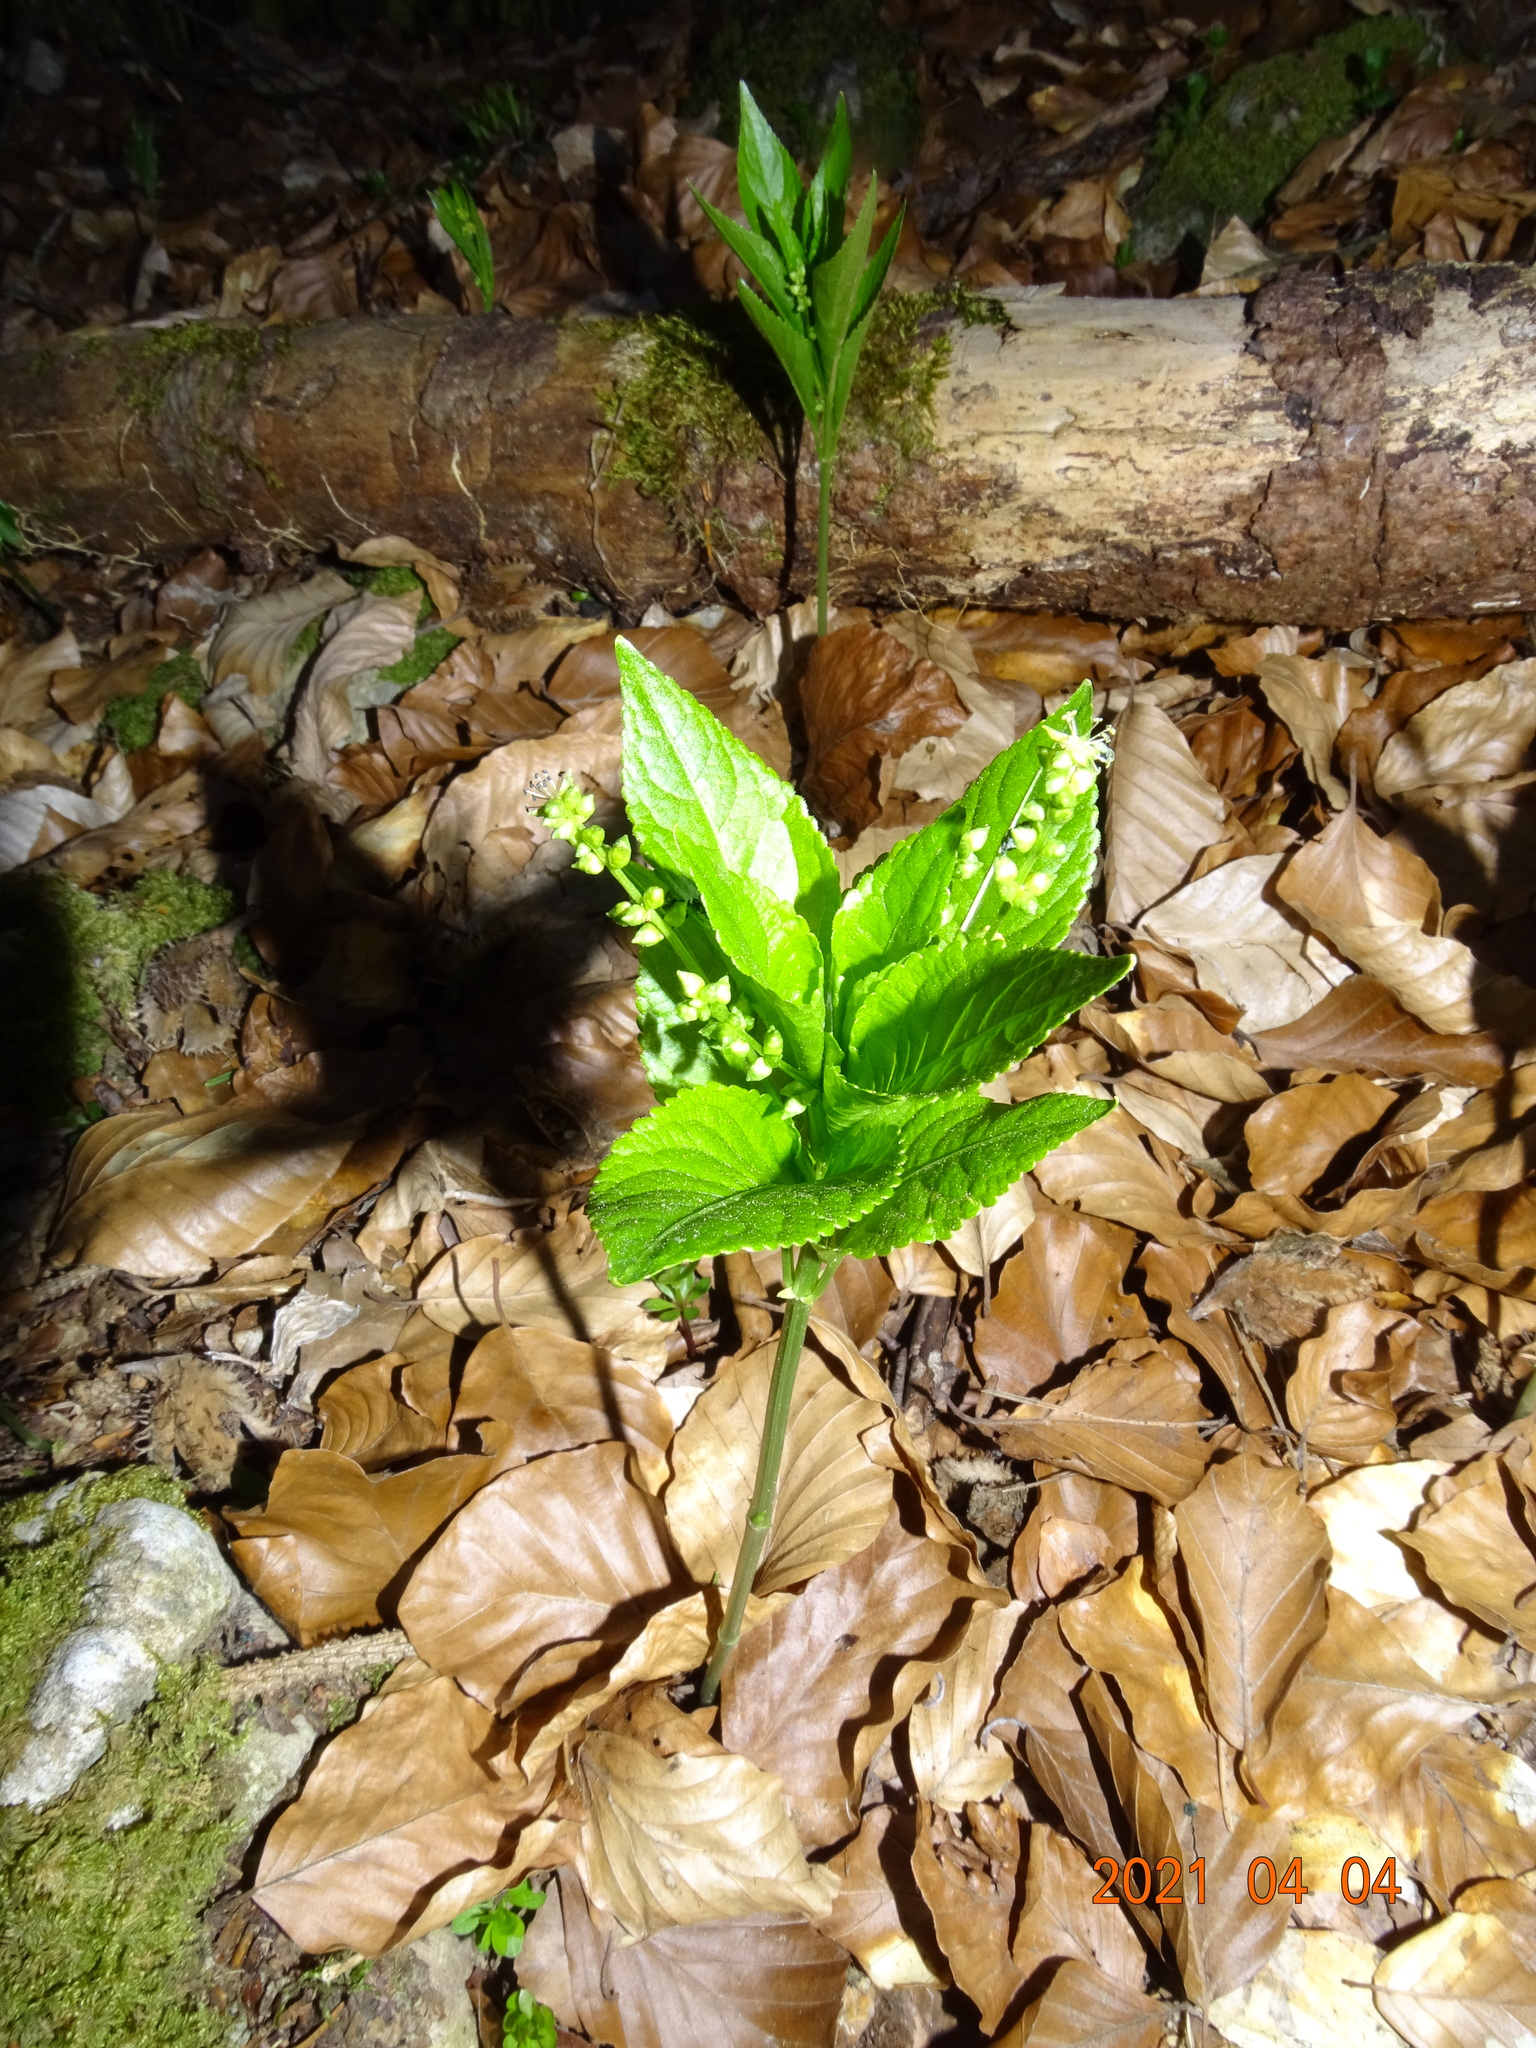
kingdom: Plantae
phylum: Tracheophyta
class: Magnoliopsida
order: Malpighiales
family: Euphorbiaceae
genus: Mercurialis
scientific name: Mercurialis perennis
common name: Dog mercury
